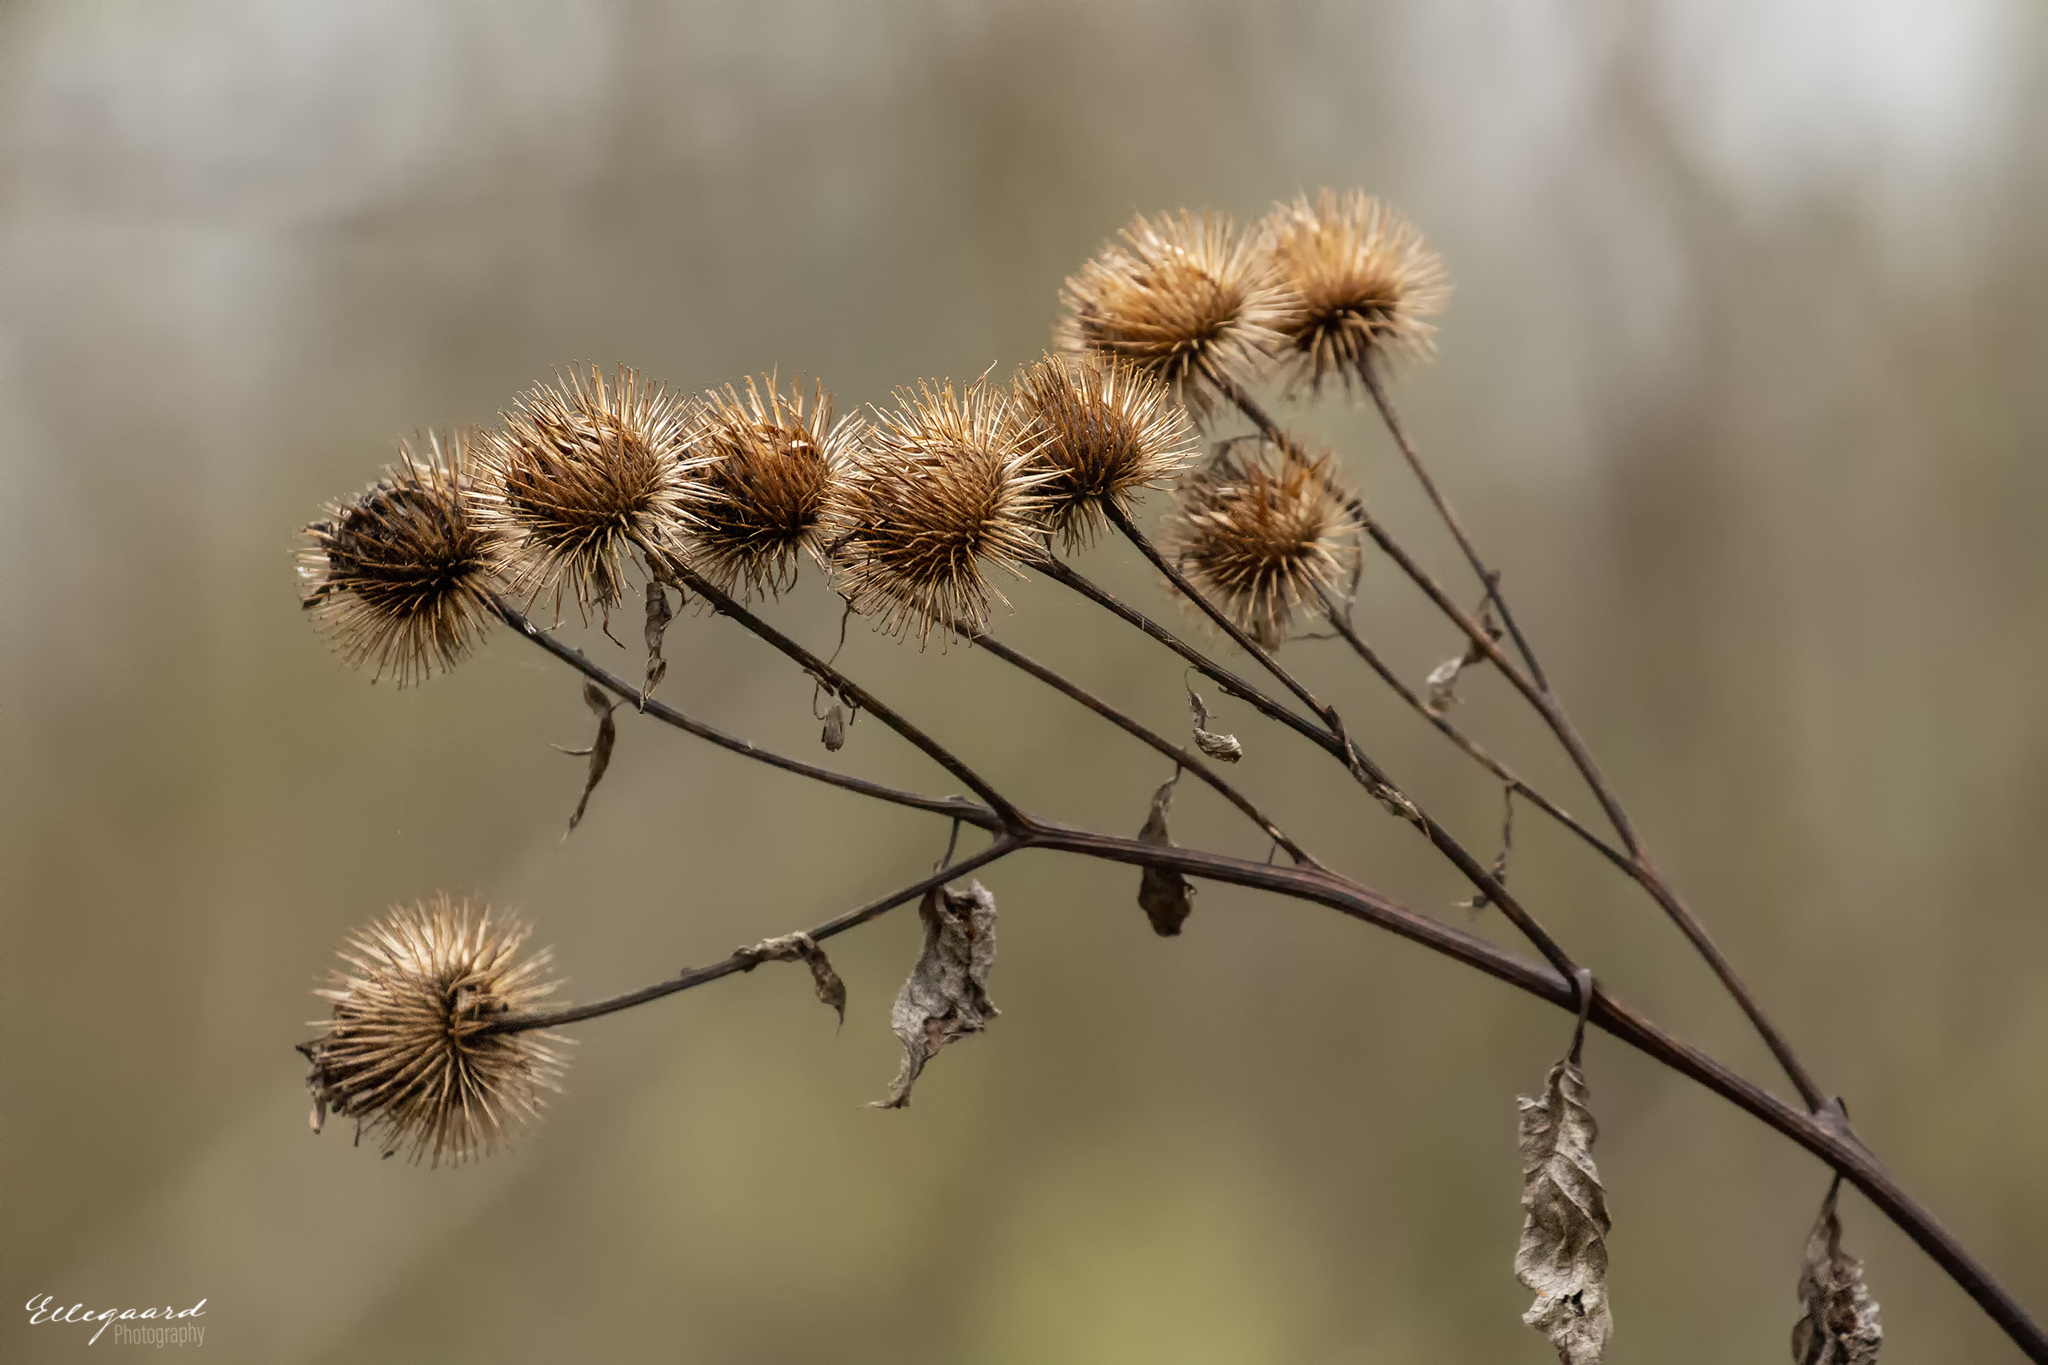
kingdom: Plantae
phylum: Tracheophyta
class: Magnoliopsida
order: Asterales
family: Asteraceae
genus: Arctium
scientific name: Arctium lappa
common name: Greater burdock
